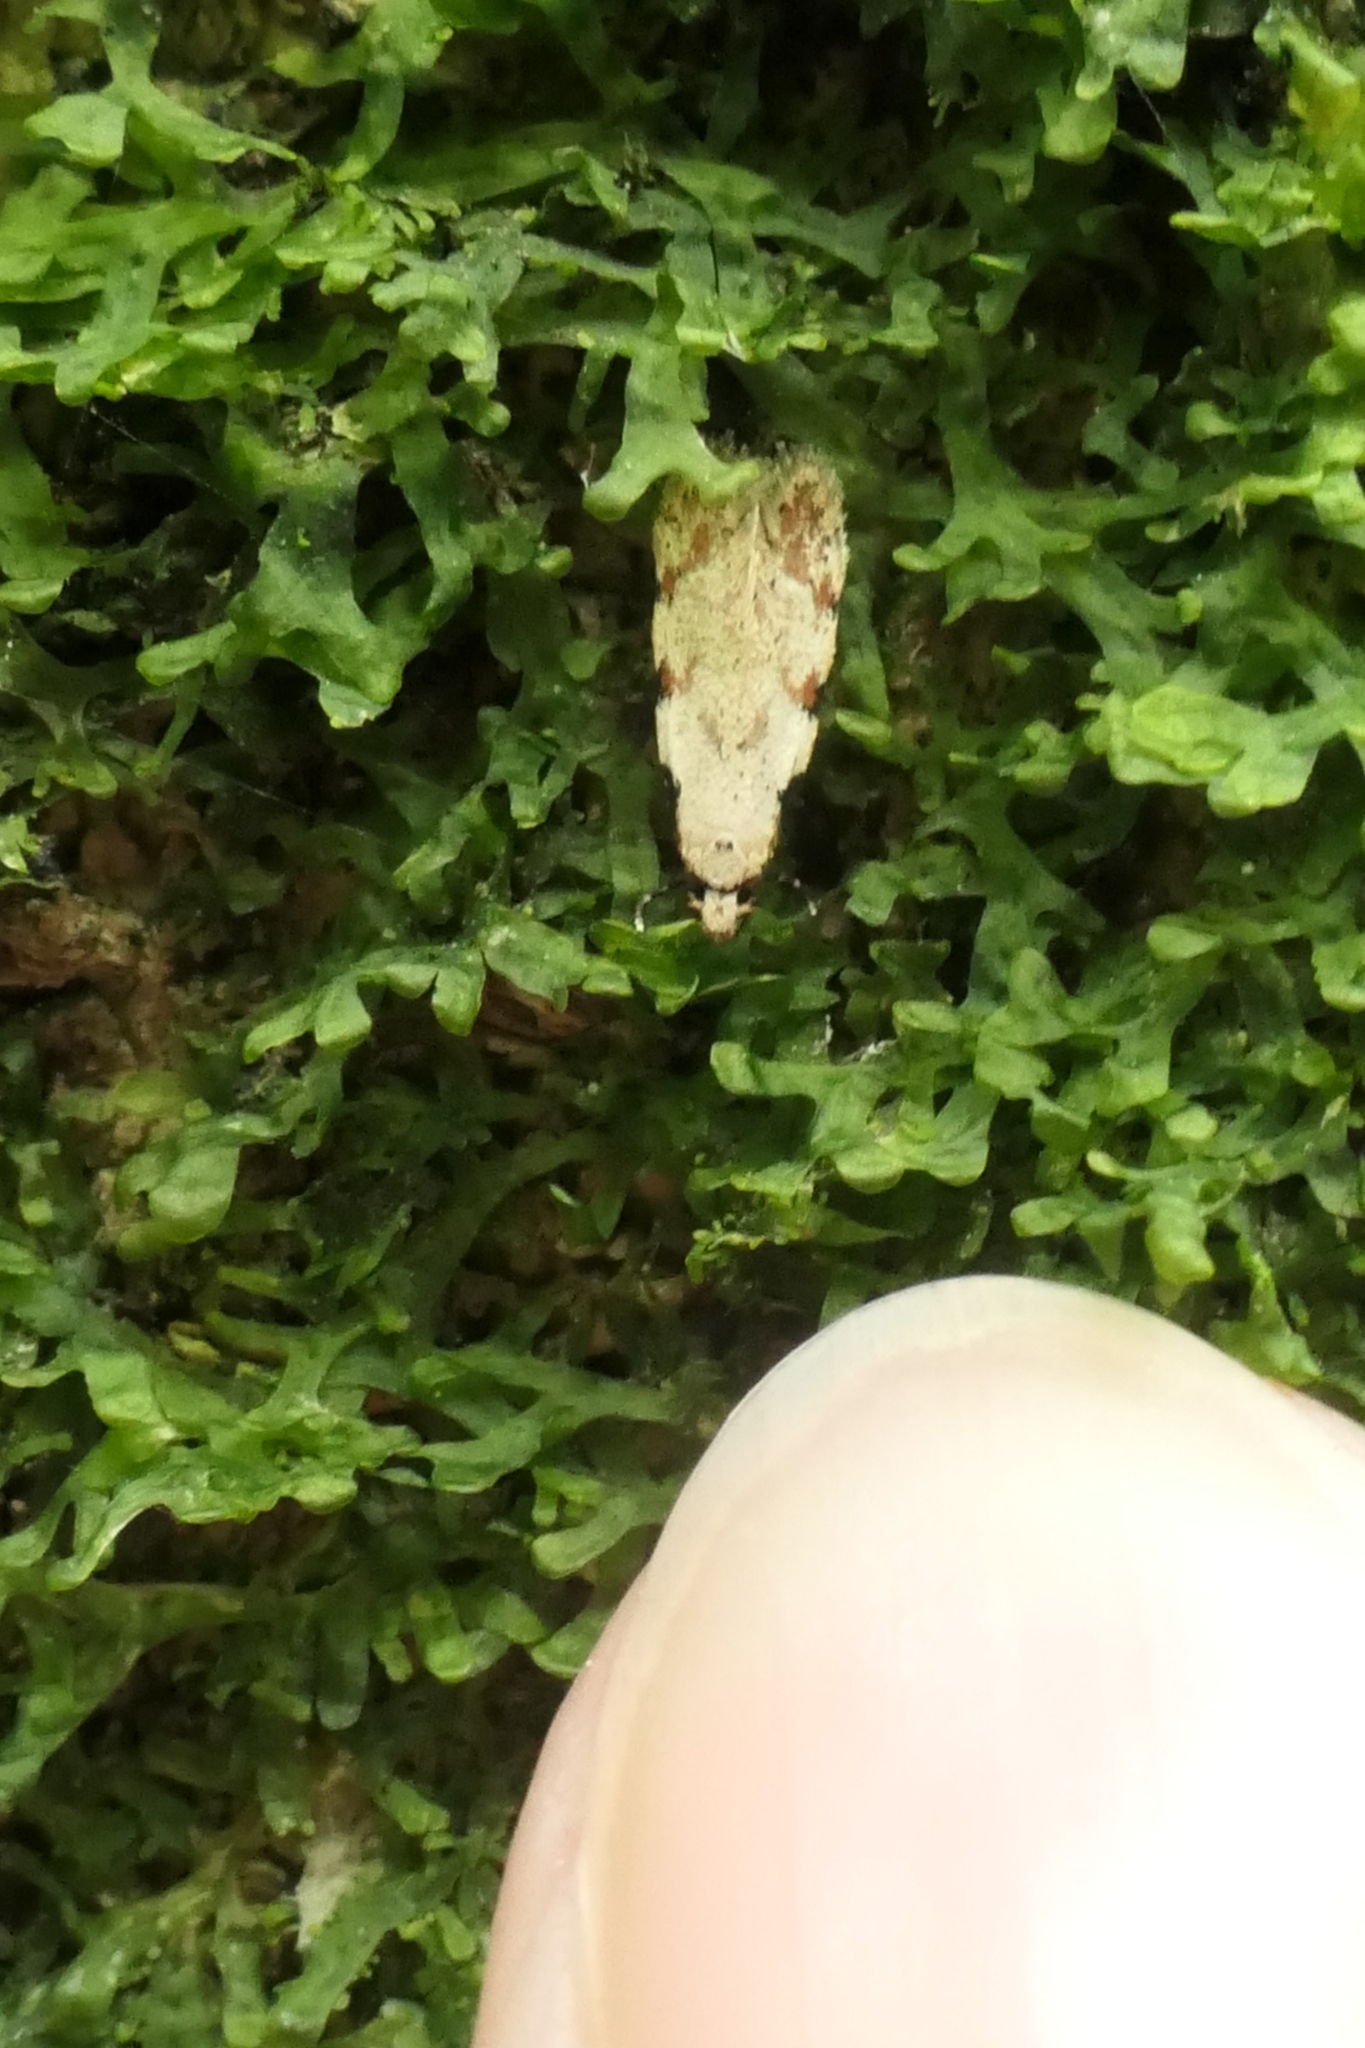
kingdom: Animalia
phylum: Arthropoda
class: Insecta
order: Lepidoptera
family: Tineidae
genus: Endophthora
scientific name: Endophthora omogramma
